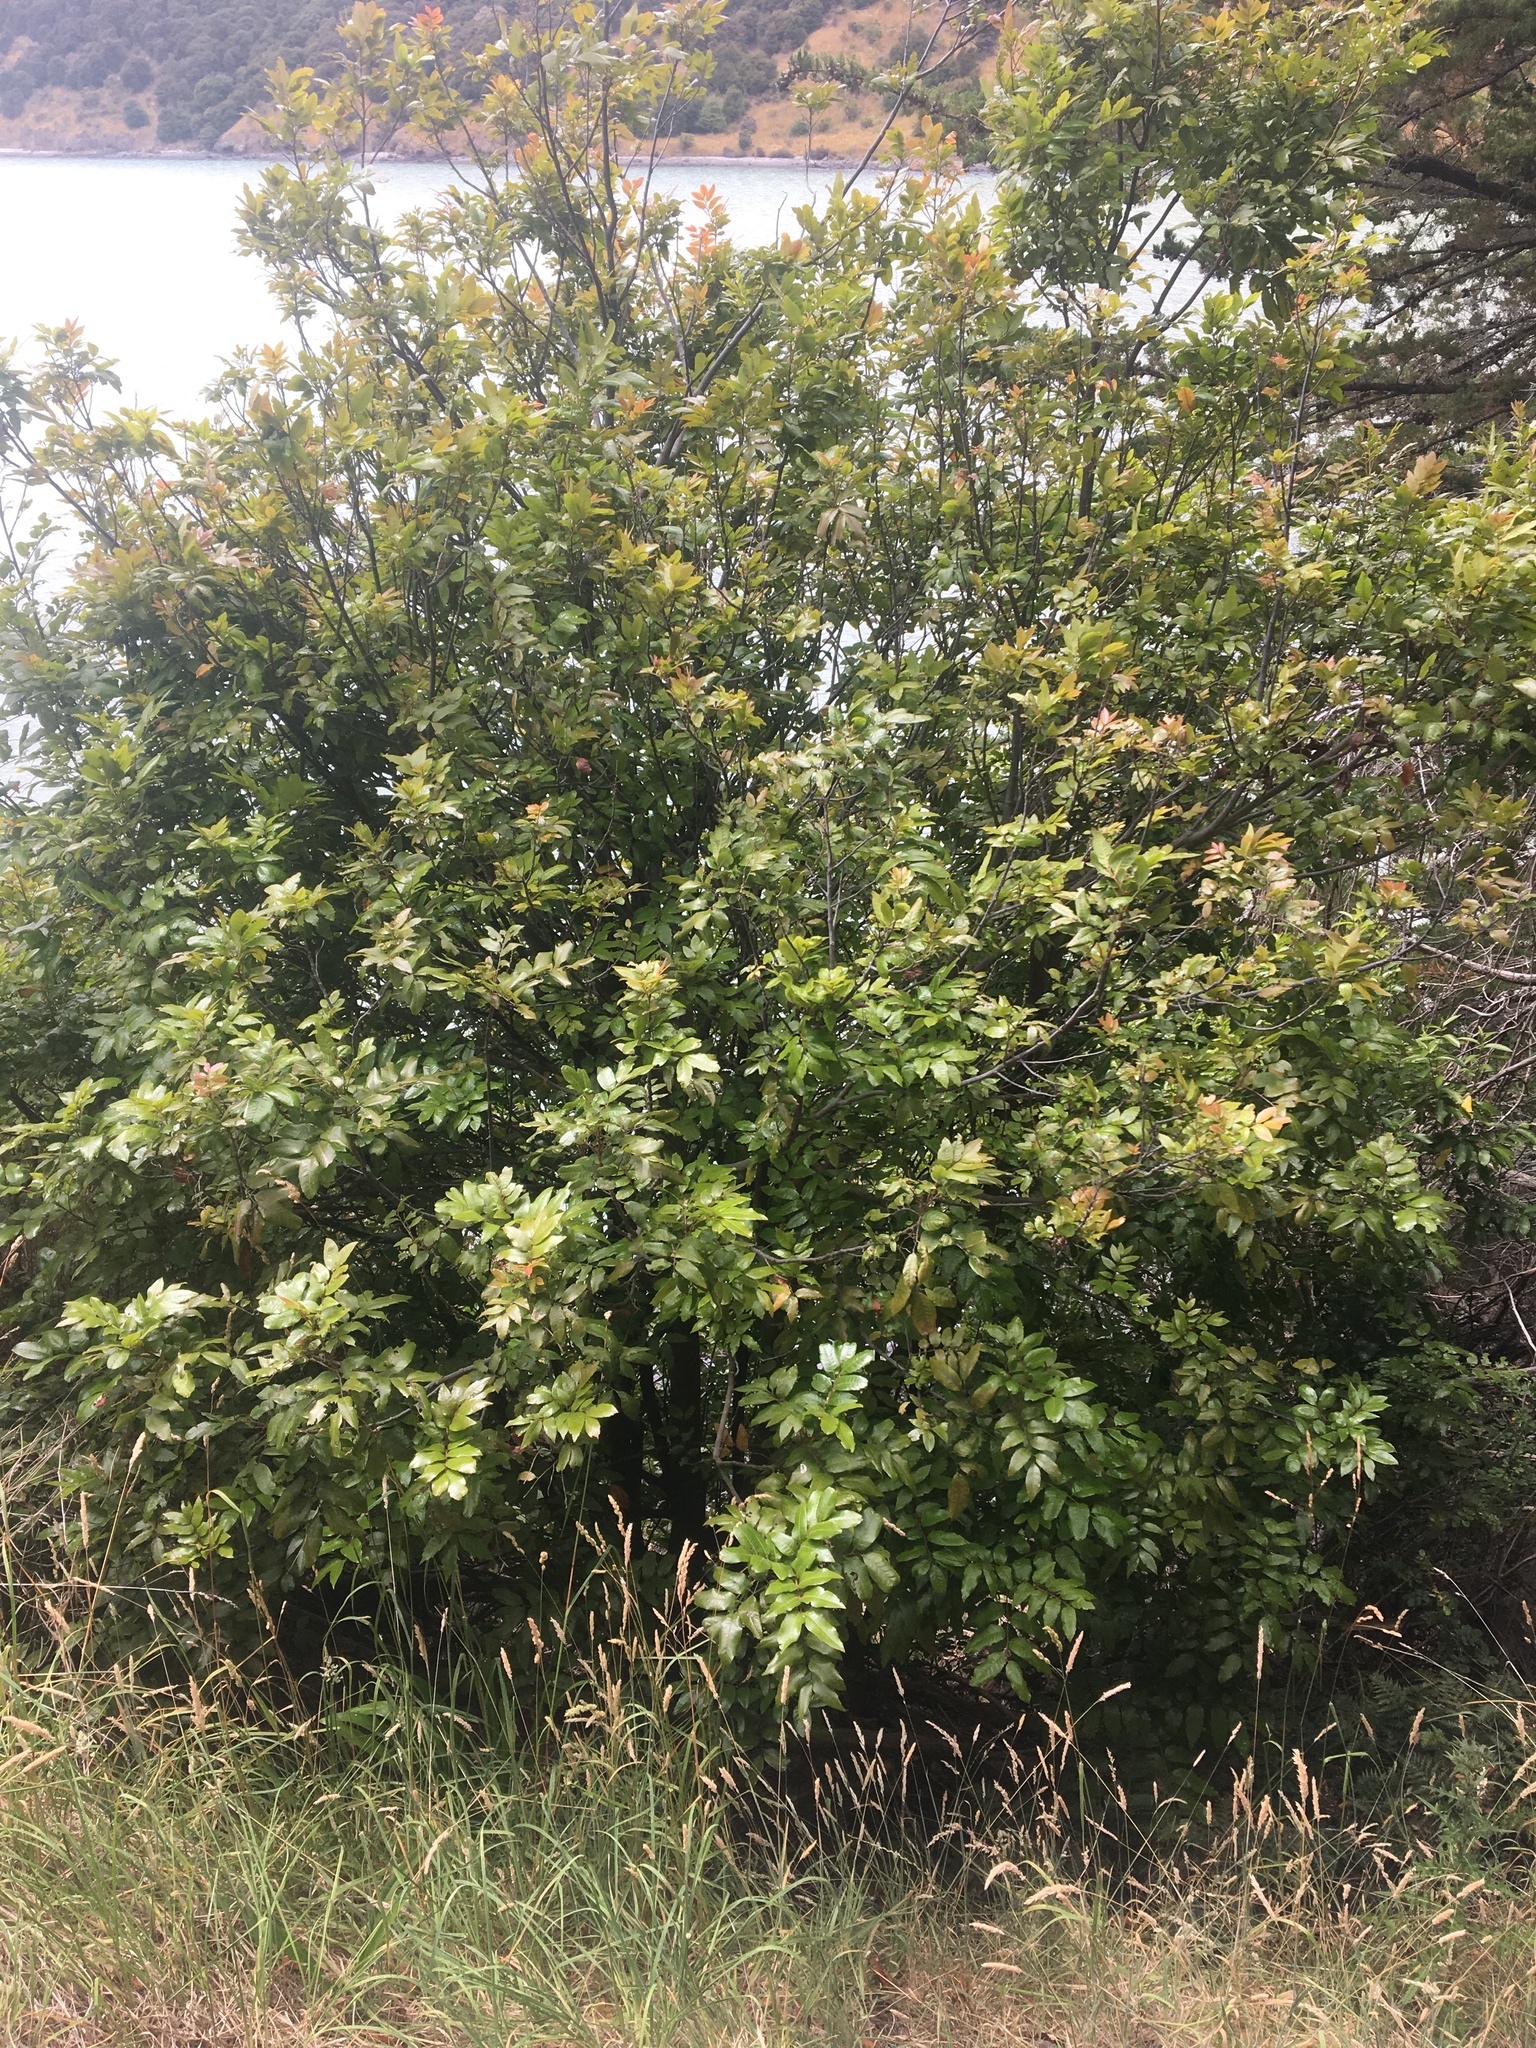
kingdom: Plantae
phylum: Tracheophyta
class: Magnoliopsida
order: Sapindales
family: Sapindaceae
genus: Alectryon
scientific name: Alectryon excelsus
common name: Three kings titoki
